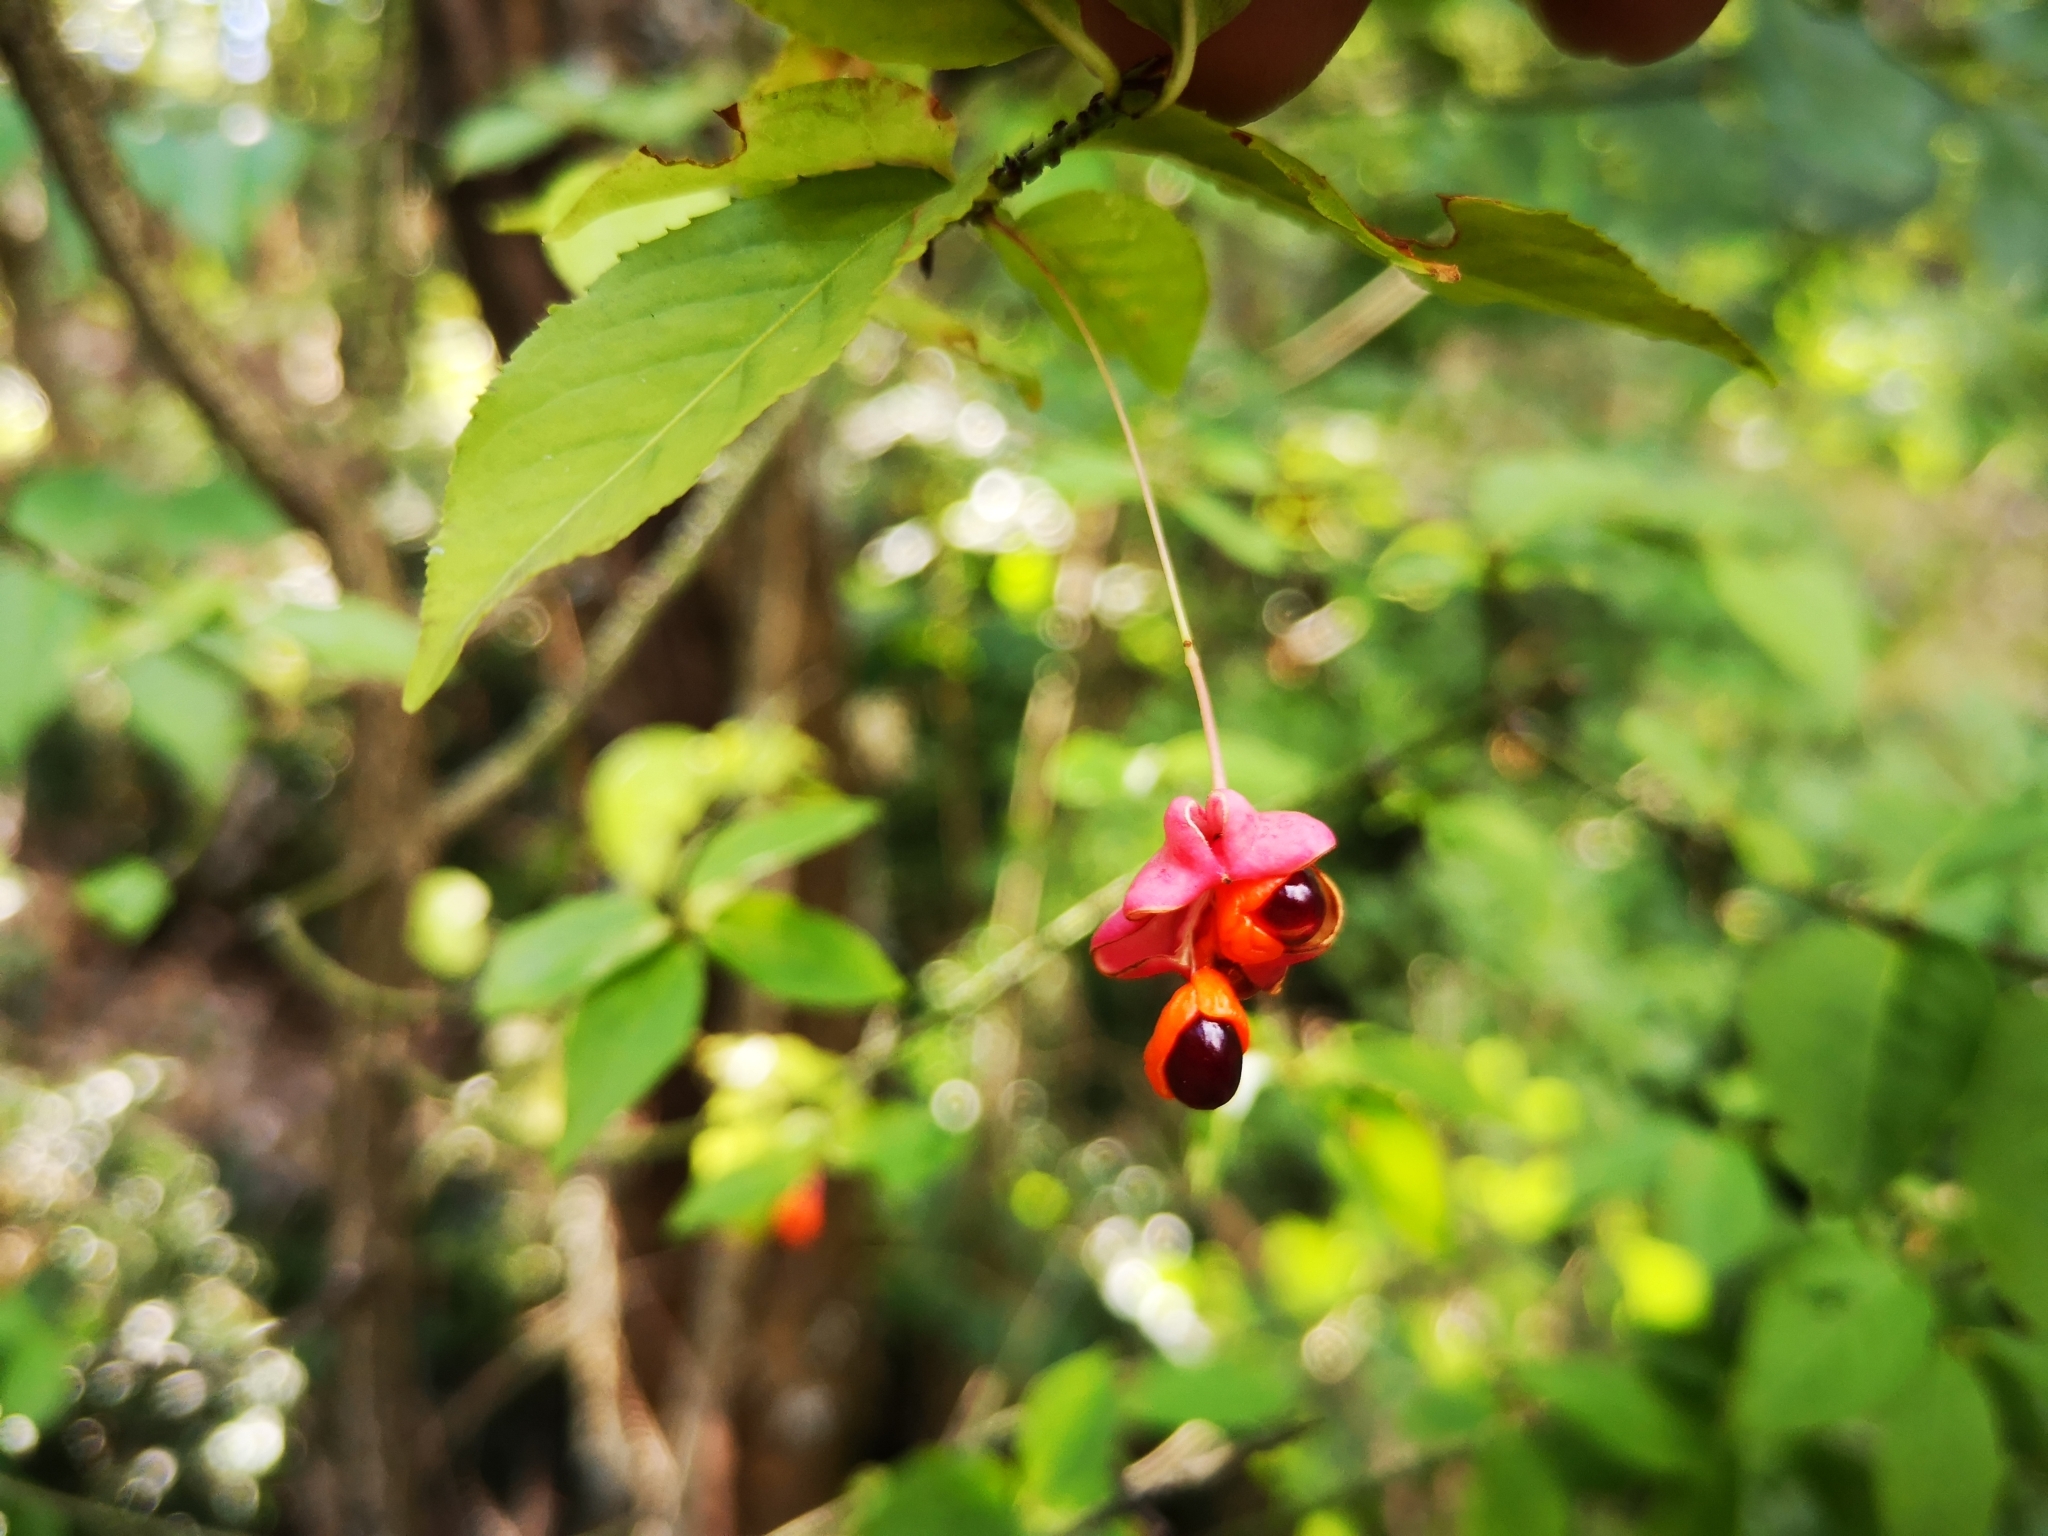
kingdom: Plantae
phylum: Tracheophyta
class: Magnoliopsida
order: Celastrales
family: Celastraceae
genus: Euonymus
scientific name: Euonymus verrucosus
